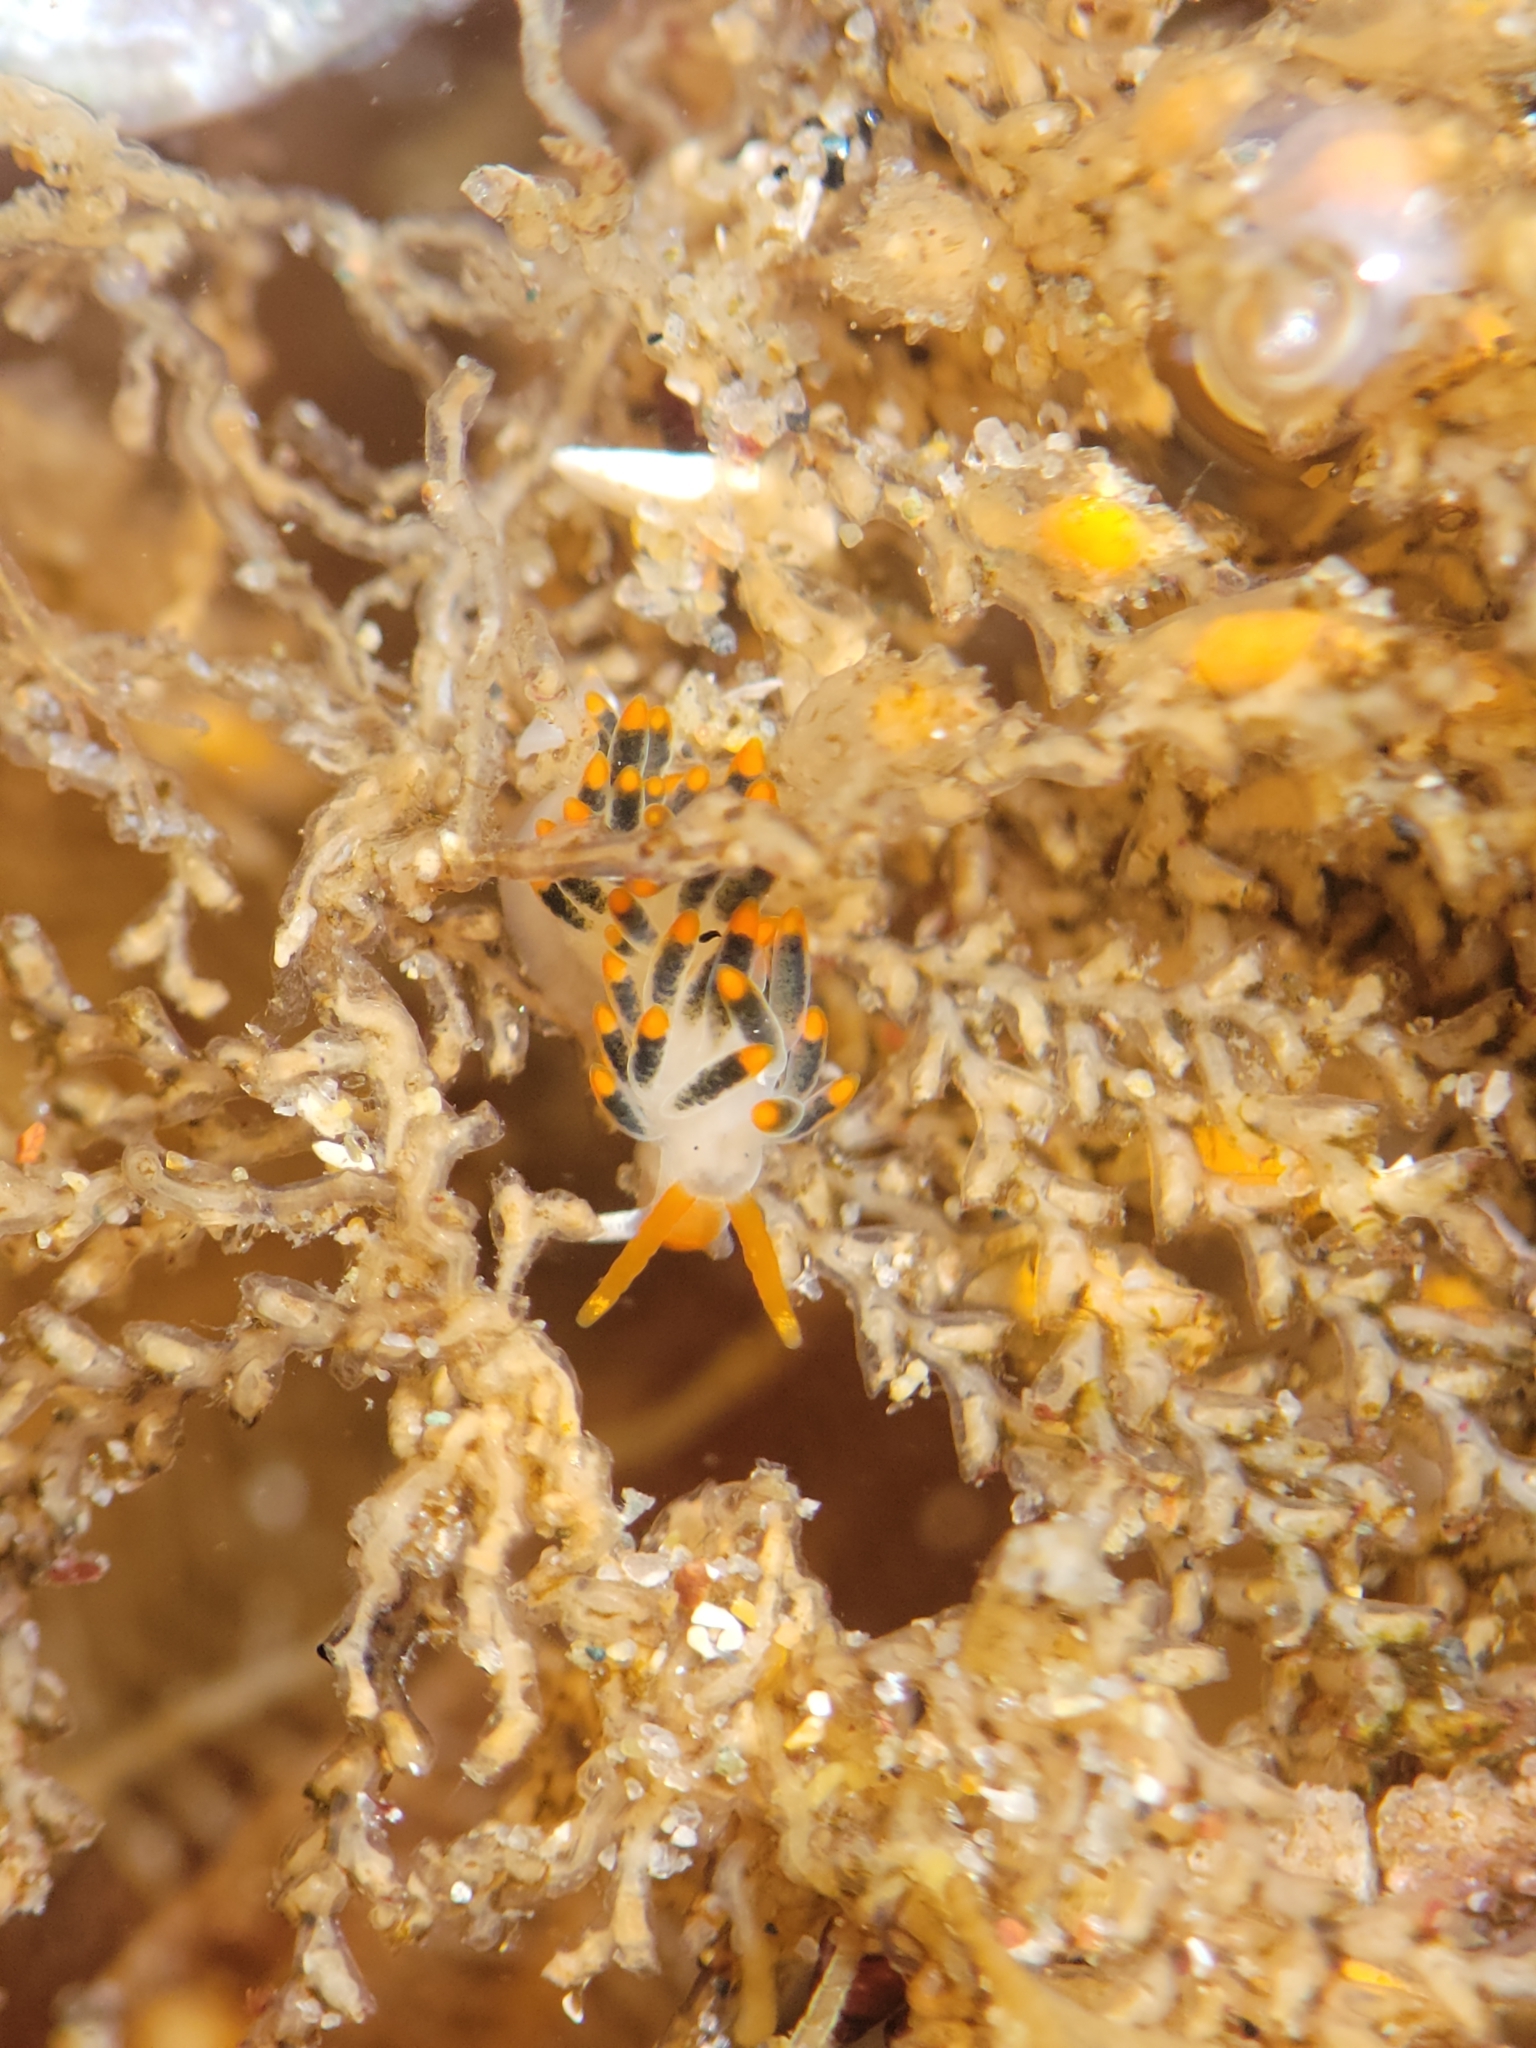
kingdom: Animalia
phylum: Mollusca
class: Gastropoda
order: Nudibranchia
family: Trinchesiidae
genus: Diaphoreolis
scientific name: Diaphoreolis lagunae
